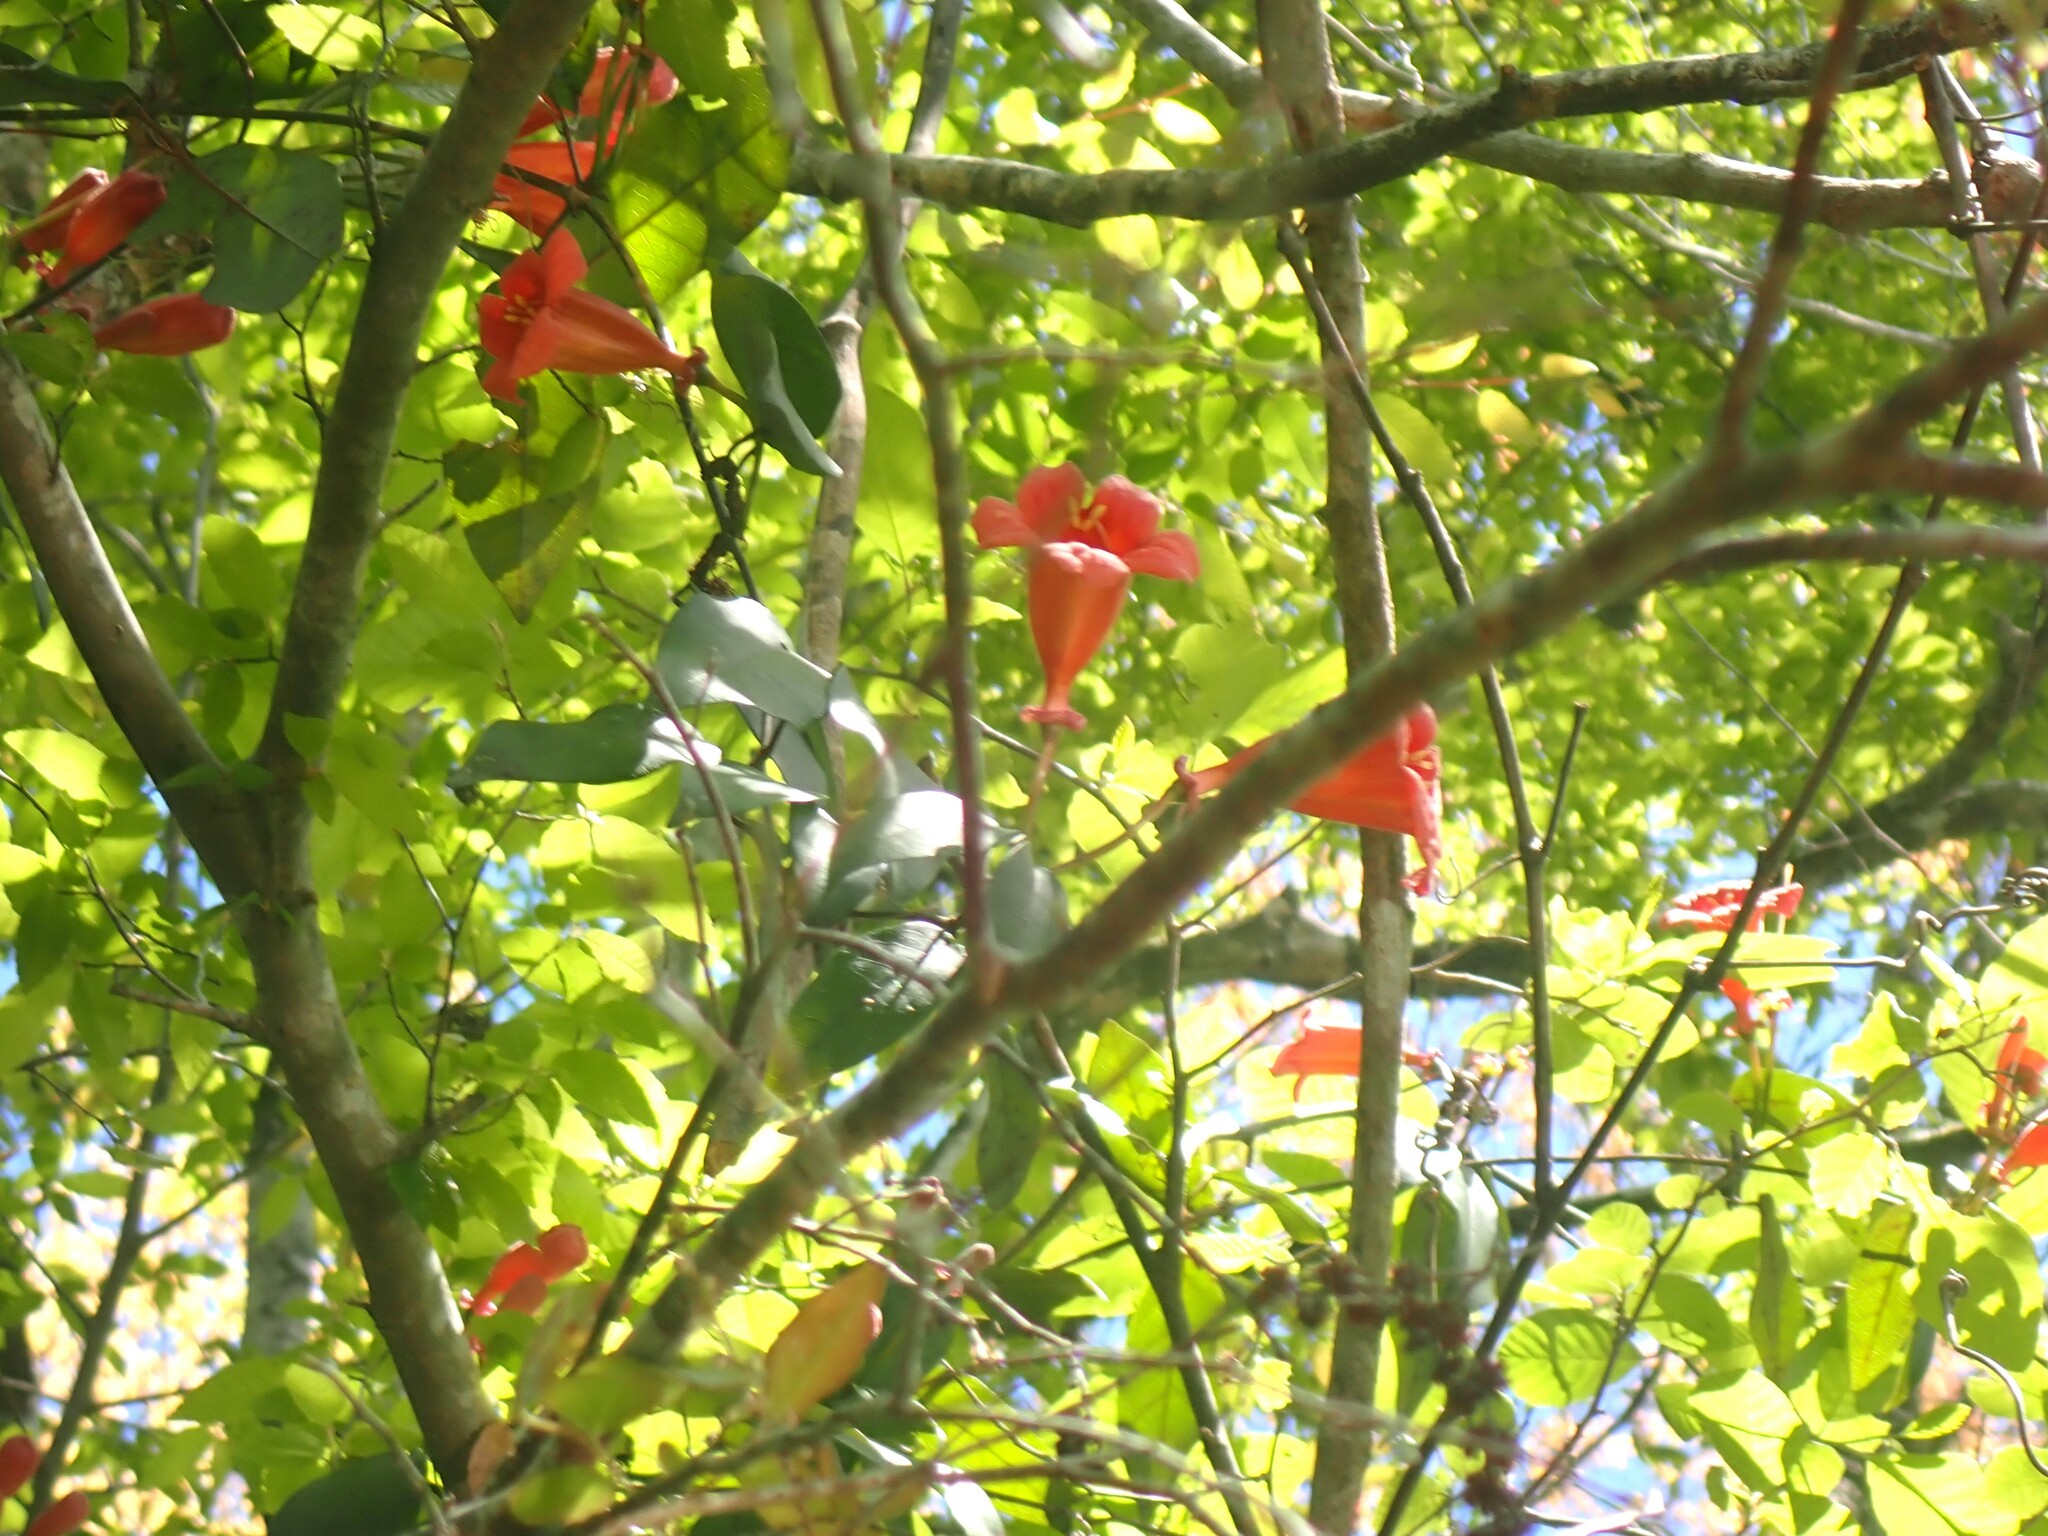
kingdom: Plantae
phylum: Tracheophyta
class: Magnoliopsida
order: Lamiales
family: Bignoniaceae
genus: Bignonia
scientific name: Bignonia capreolata
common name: Crossvine
